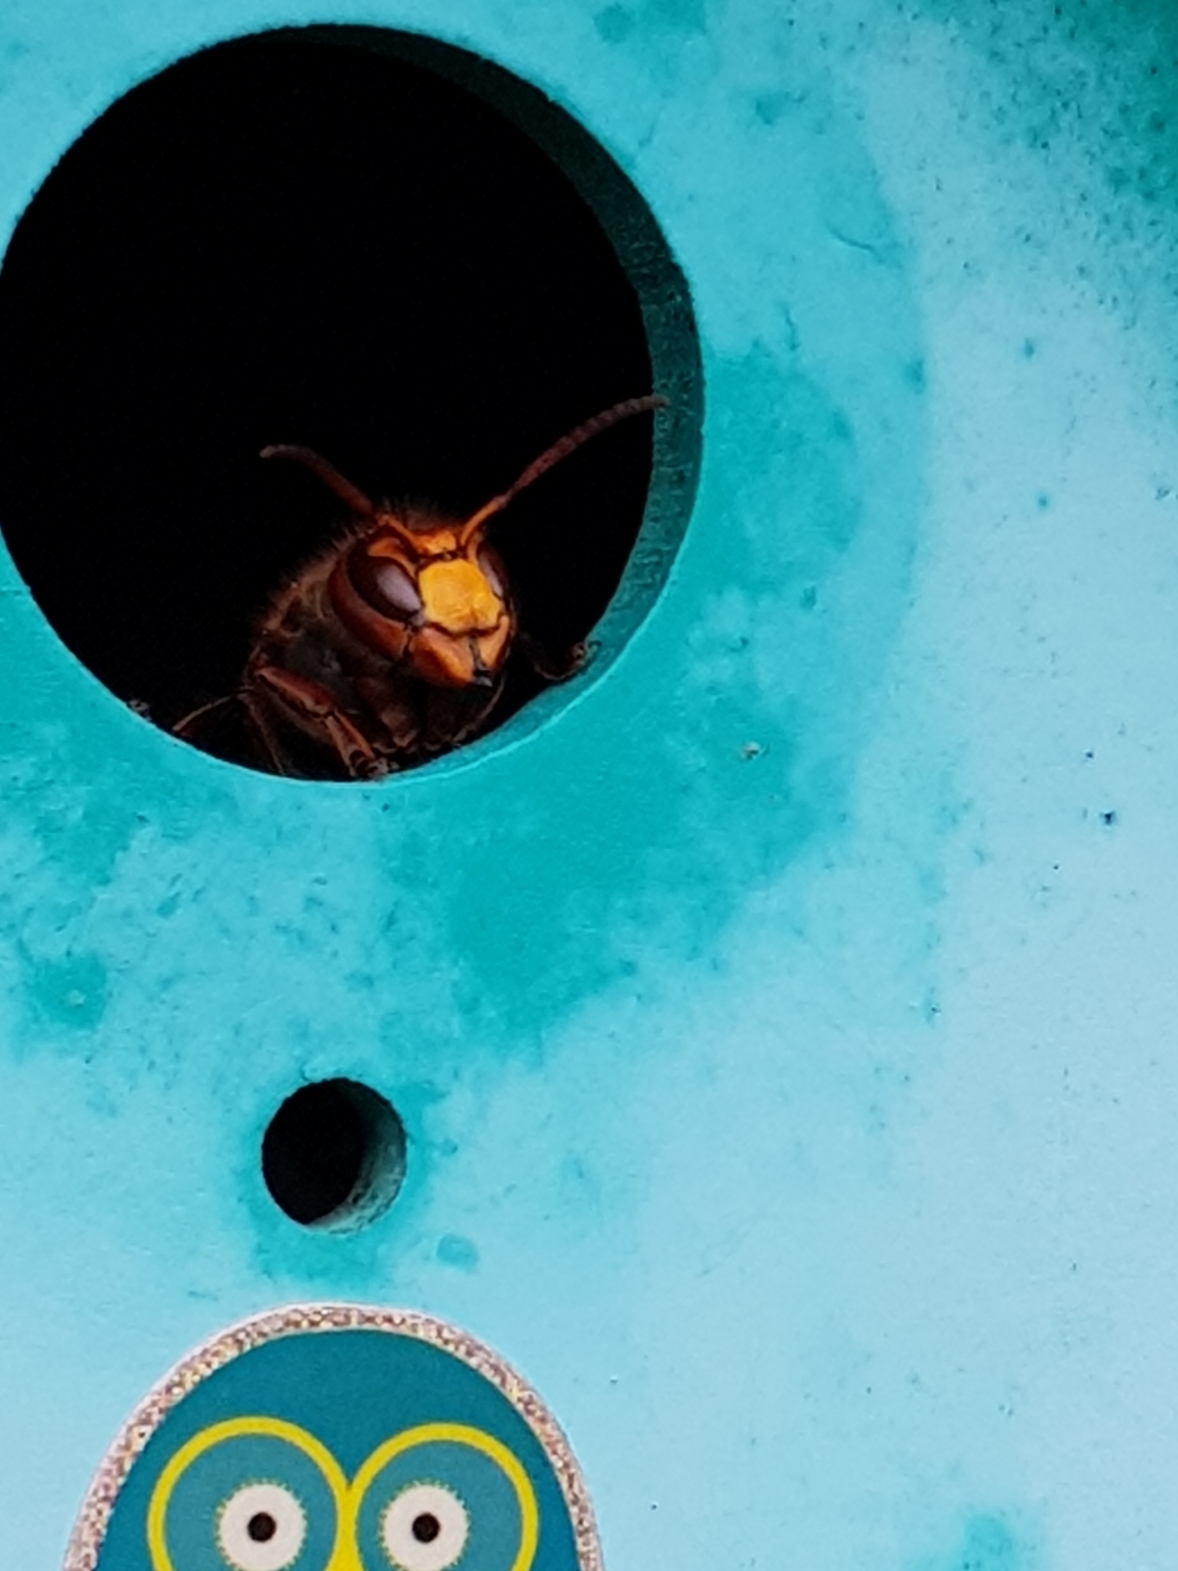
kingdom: Animalia
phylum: Arthropoda
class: Insecta
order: Hymenoptera
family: Vespidae
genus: Vespa
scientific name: Vespa crabro
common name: Hornet
